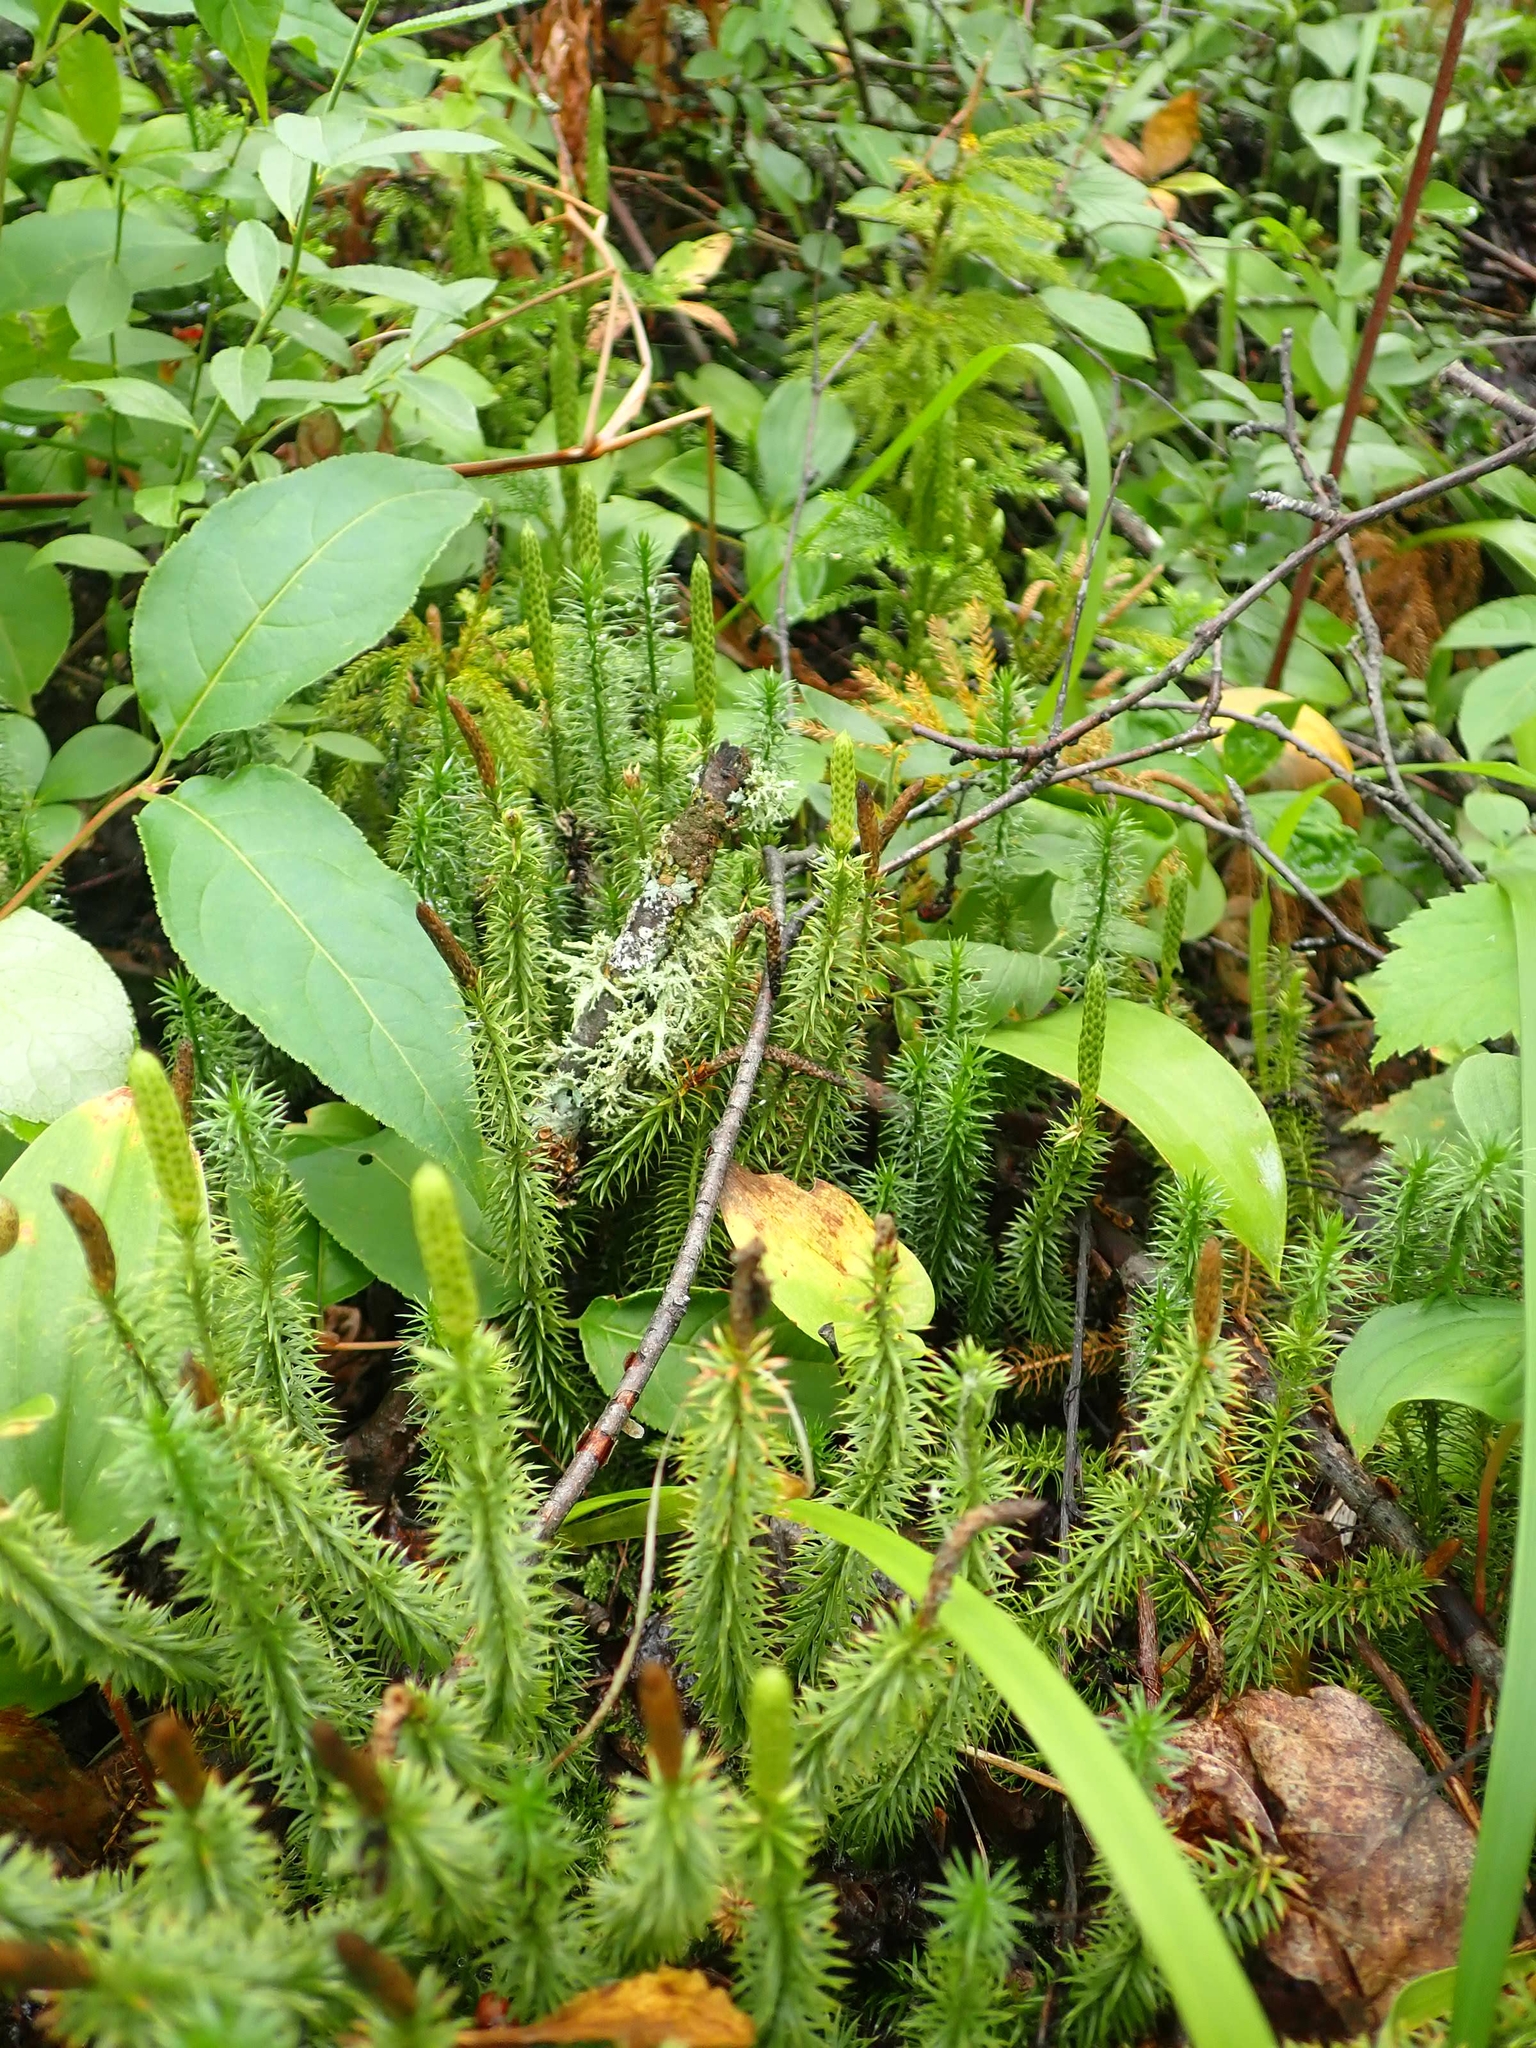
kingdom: Plantae
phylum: Tracheophyta
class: Lycopodiopsida
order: Lycopodiales
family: Lycopodiaceae
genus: Spinulum
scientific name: Spinulum annotinum
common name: Interrupted club-moss
